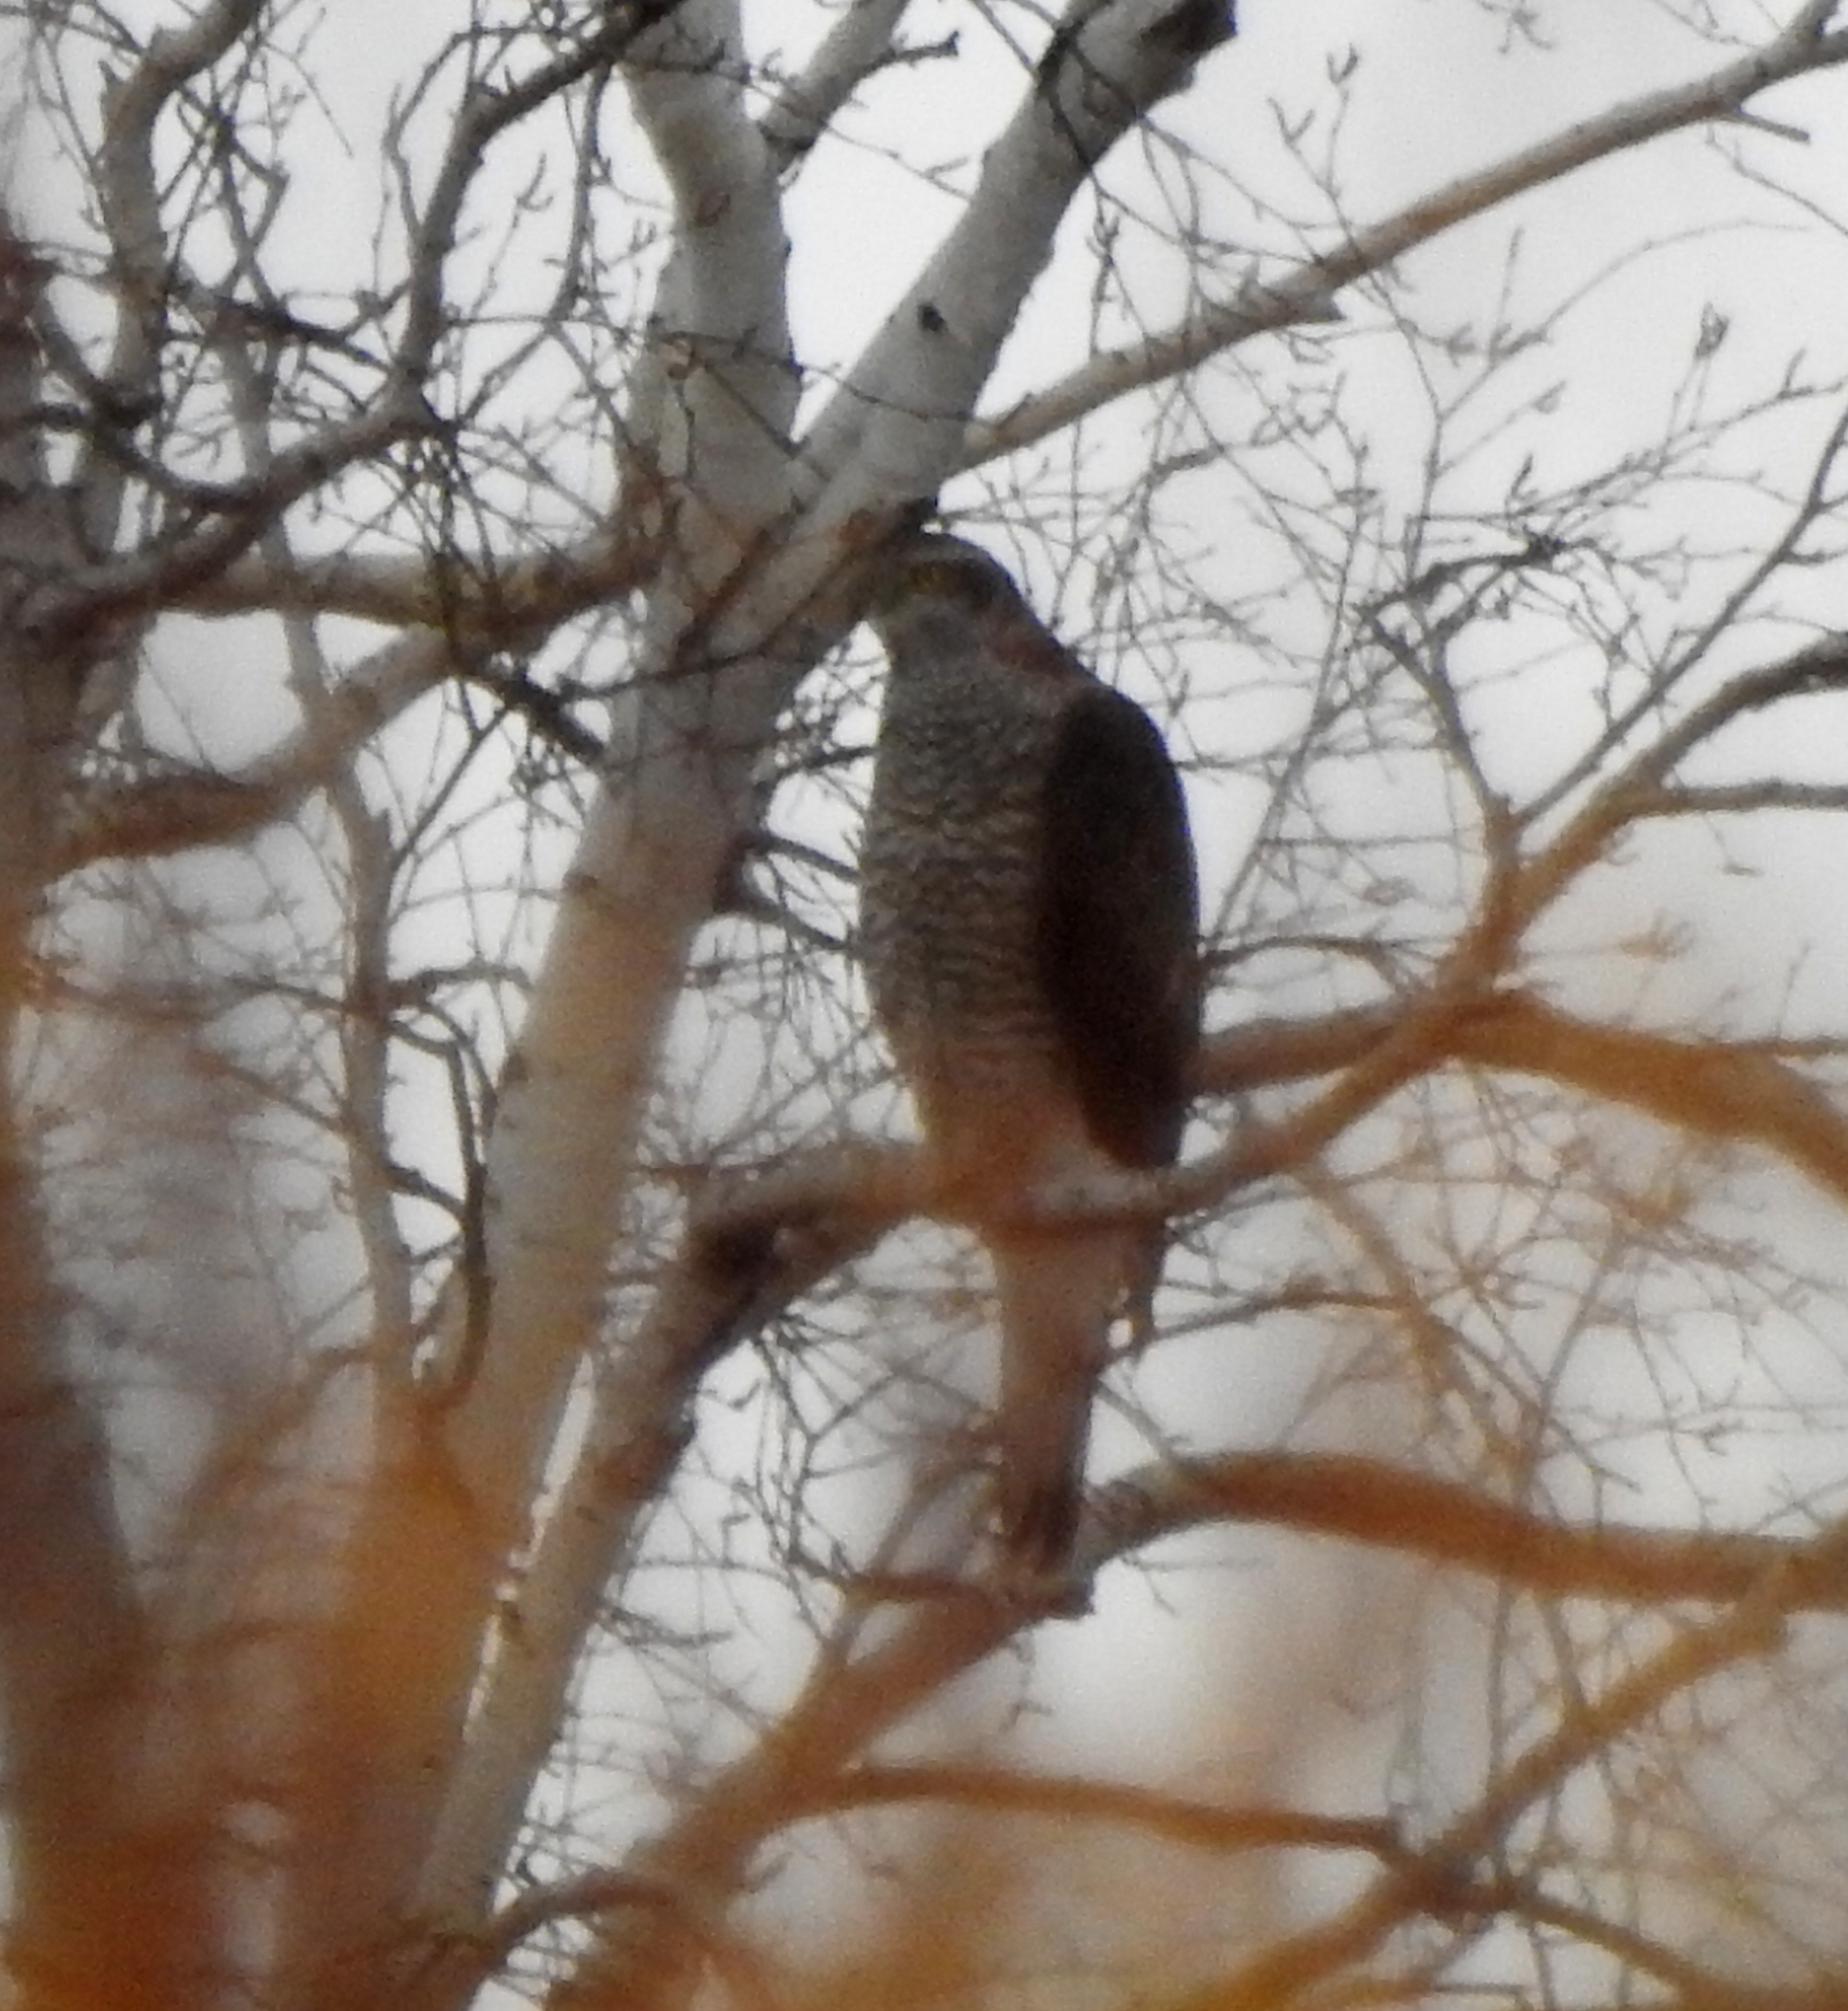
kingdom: Animalia
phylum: Chordata
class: Aves
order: Accipitriformes
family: Accipitridae
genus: Accipiter
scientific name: Accipiter gentilis
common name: Northern goshawk
